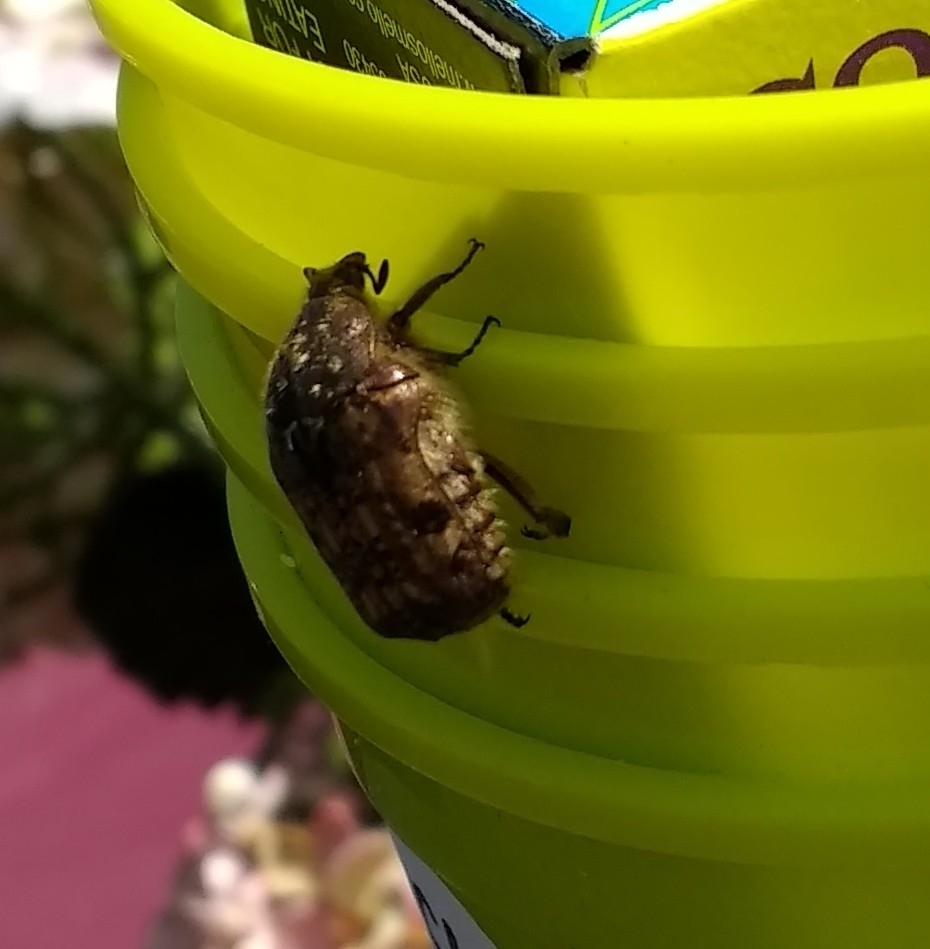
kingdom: Animalia
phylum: Arthropoda
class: Insecta
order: Coleoptera
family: Scarabaeidae
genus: Euphoria
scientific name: Euphoria inda
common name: Bumble flower beetle
